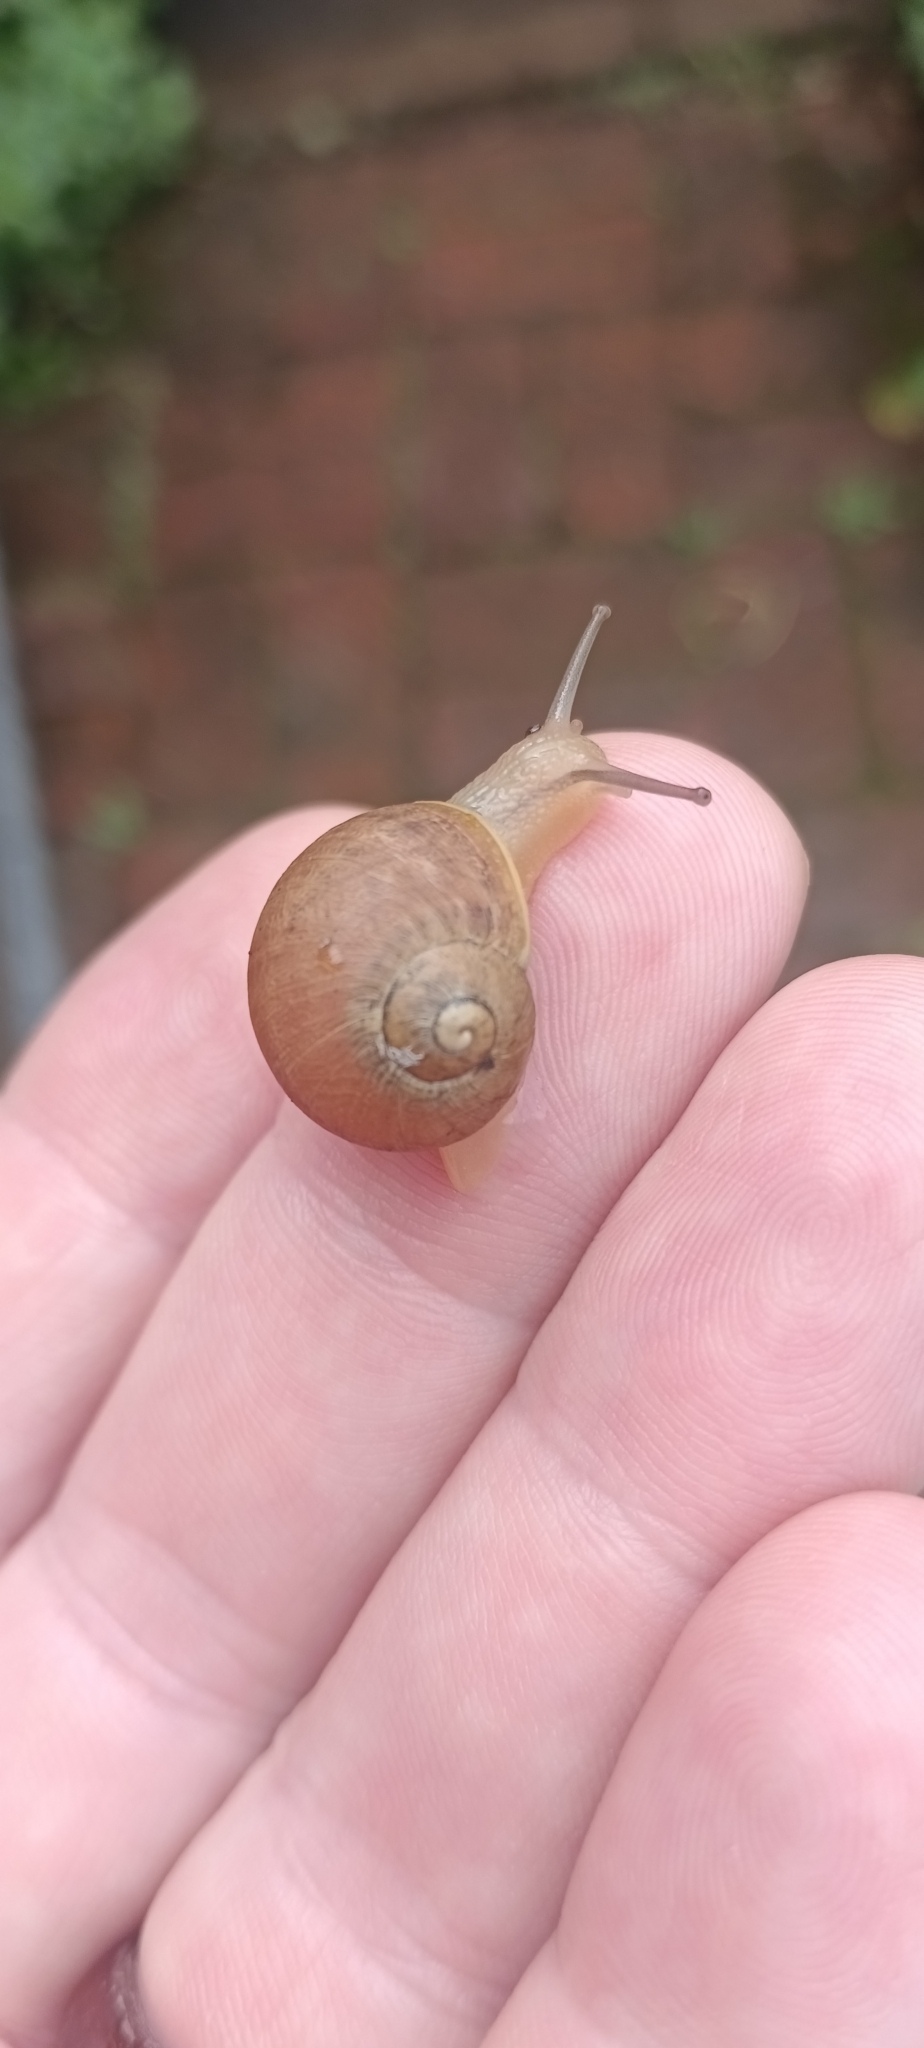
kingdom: Animalia
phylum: Mollusca
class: Gastropoda
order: Stylommatophora
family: Helicidae
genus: Cornu
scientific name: Cornu aspersum
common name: Brown garden snail
